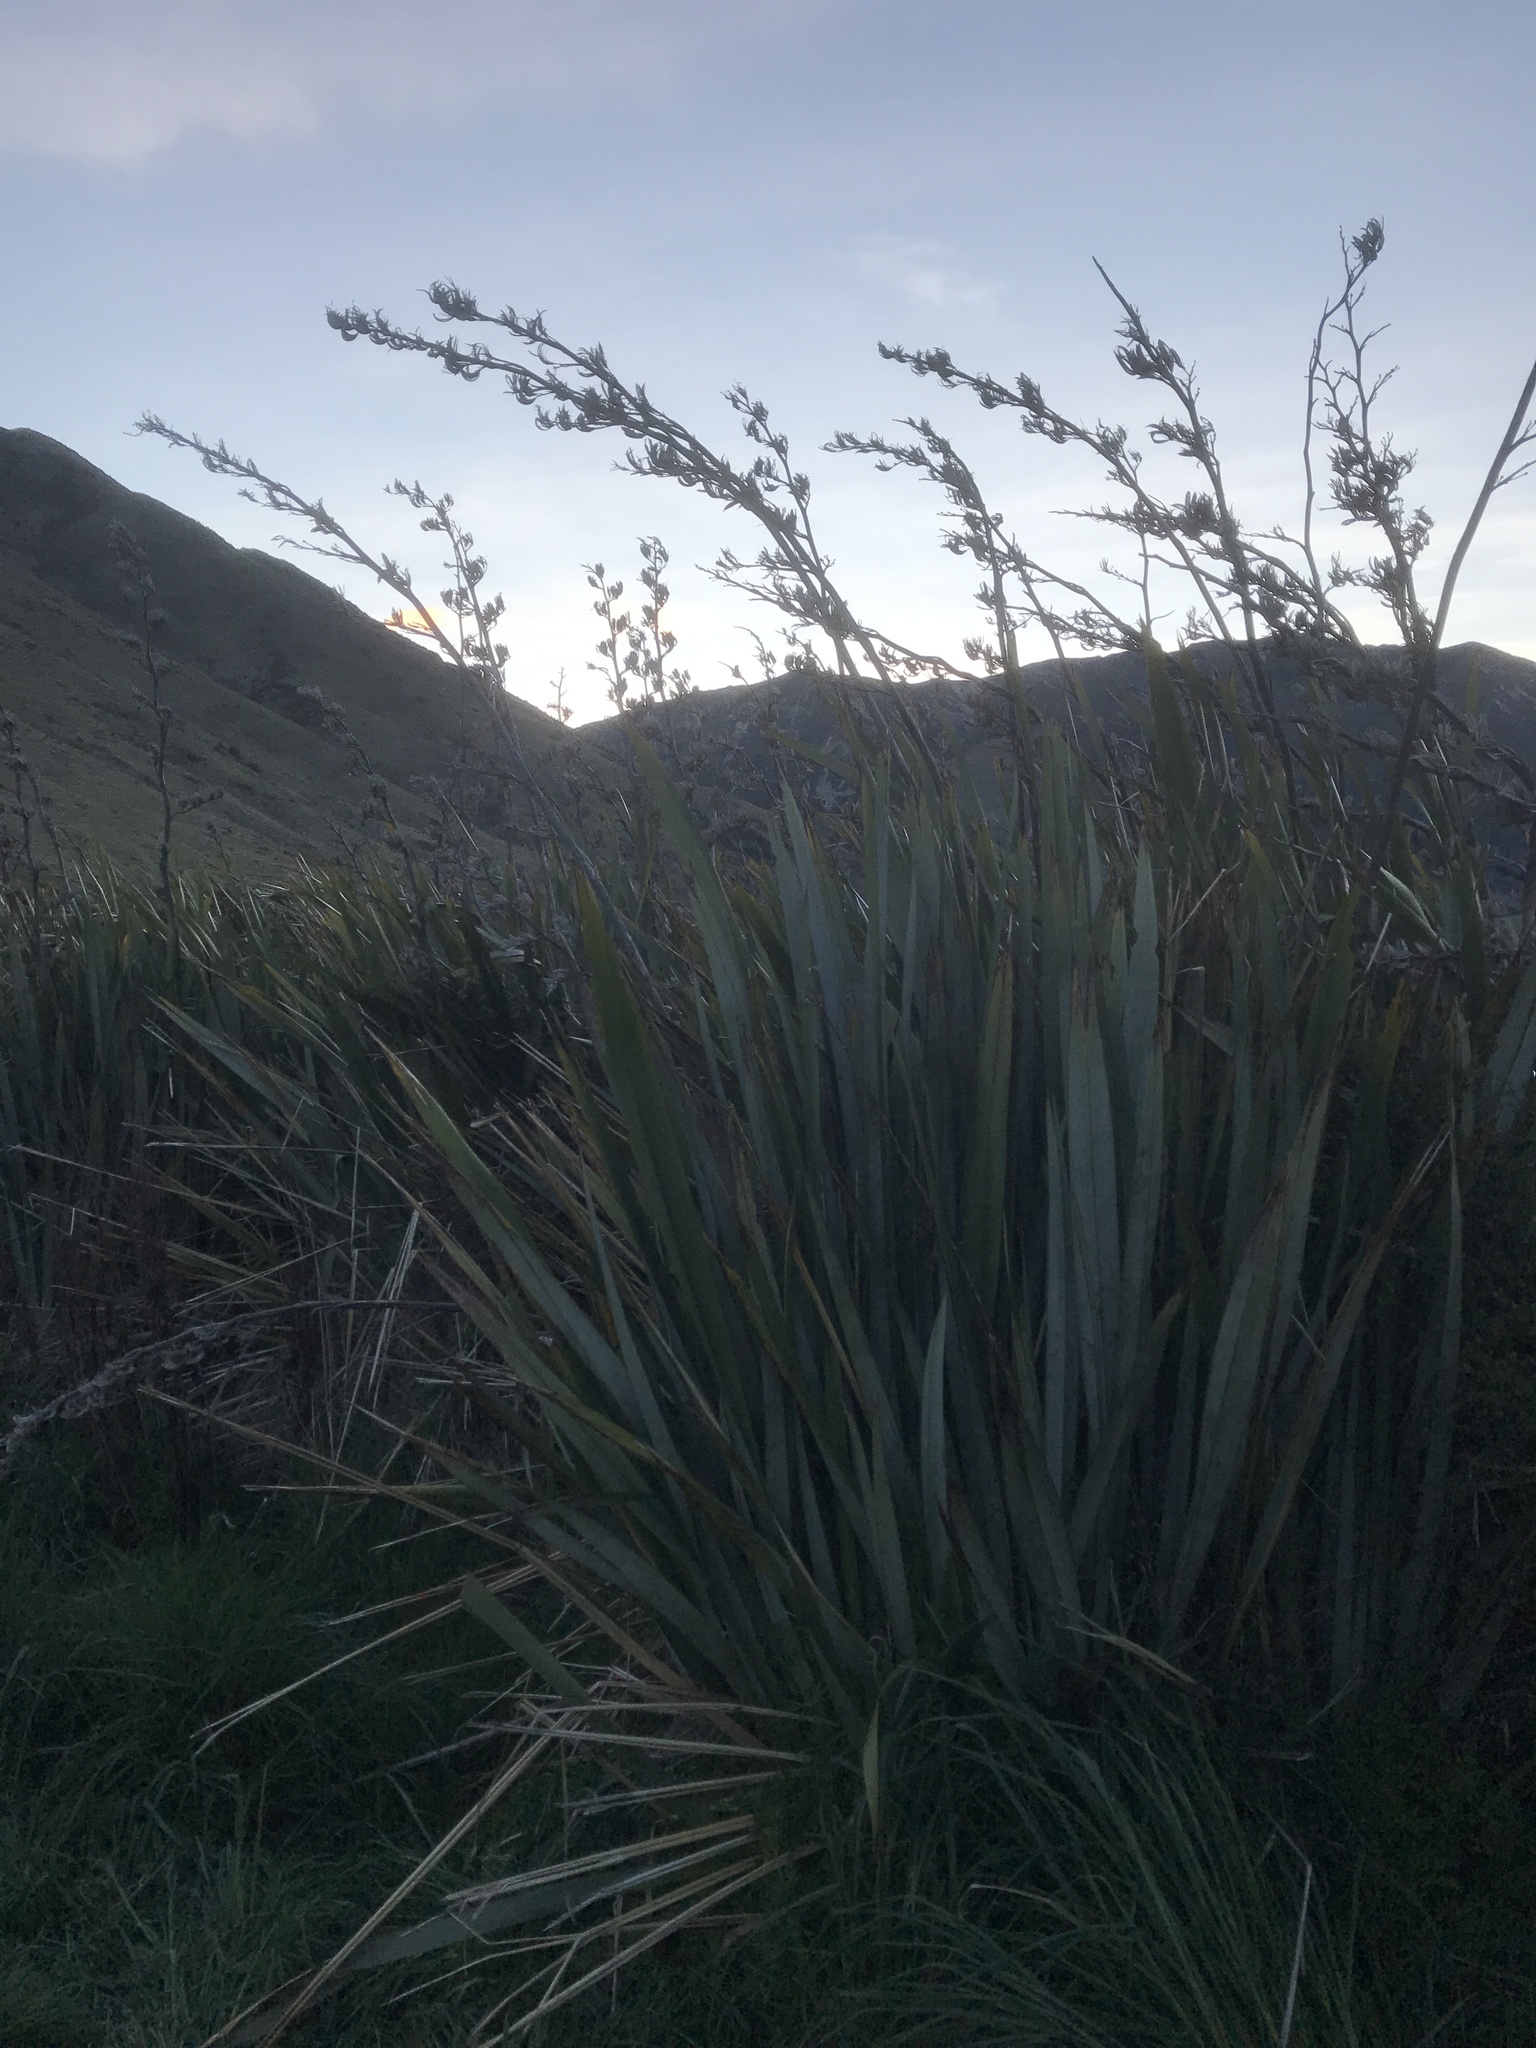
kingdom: Plantae
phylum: Tracheophyta
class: Liliopsida
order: Asparagales
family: Asphodelaceae
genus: Phormium
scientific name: Phormium tenax
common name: New zealand flax
